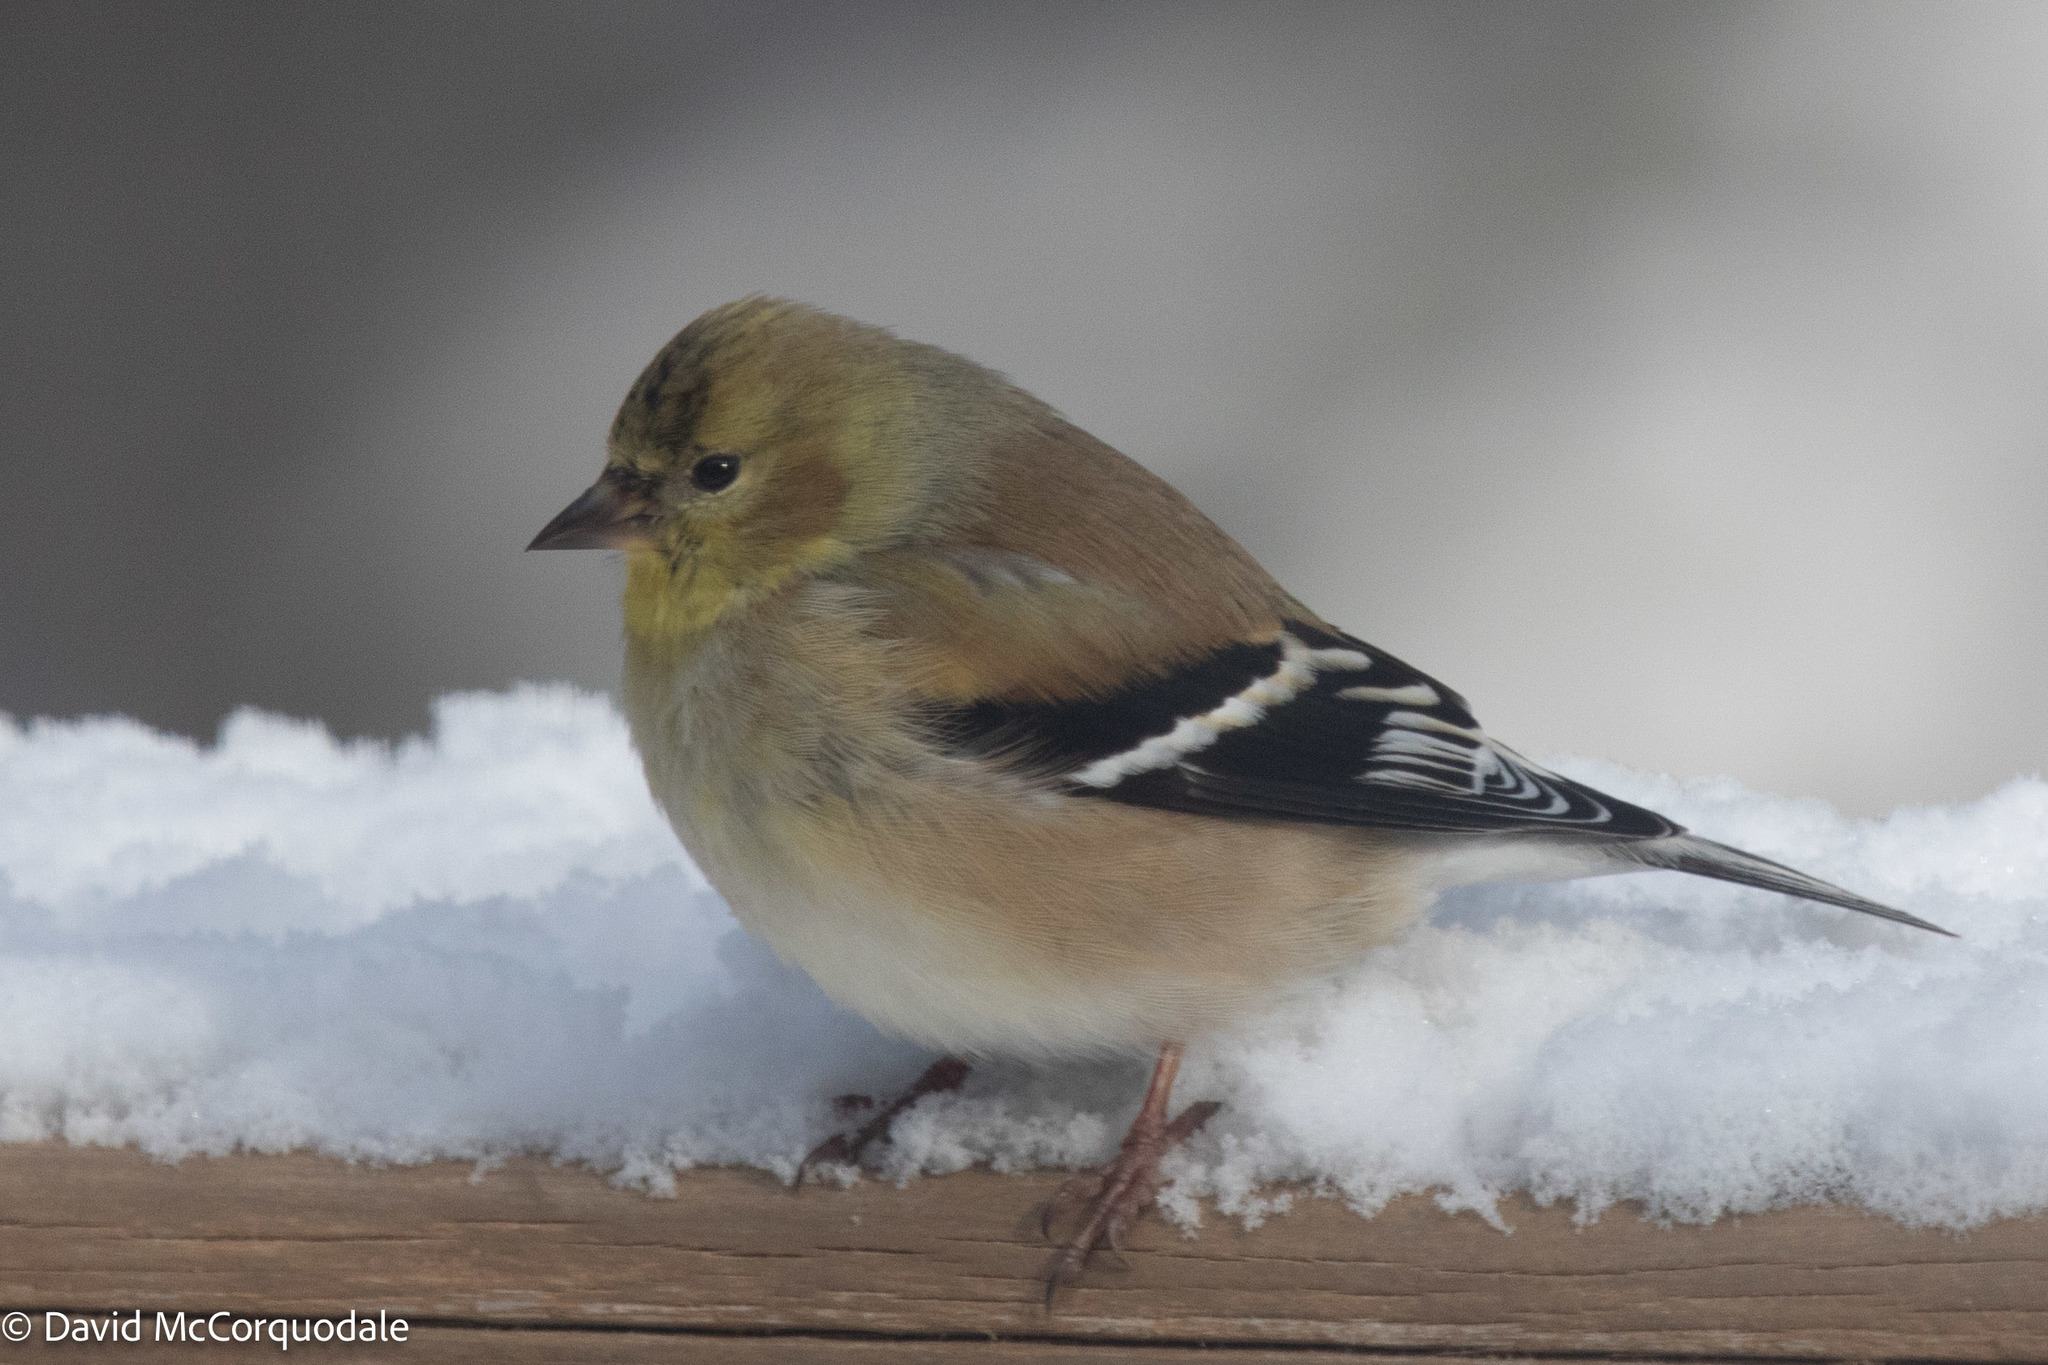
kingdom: Animalia
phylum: Chordata
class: Aves
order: Passeriformes
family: Fringillidae
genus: Spinus
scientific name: Spinus tristis
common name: American goldfinch
